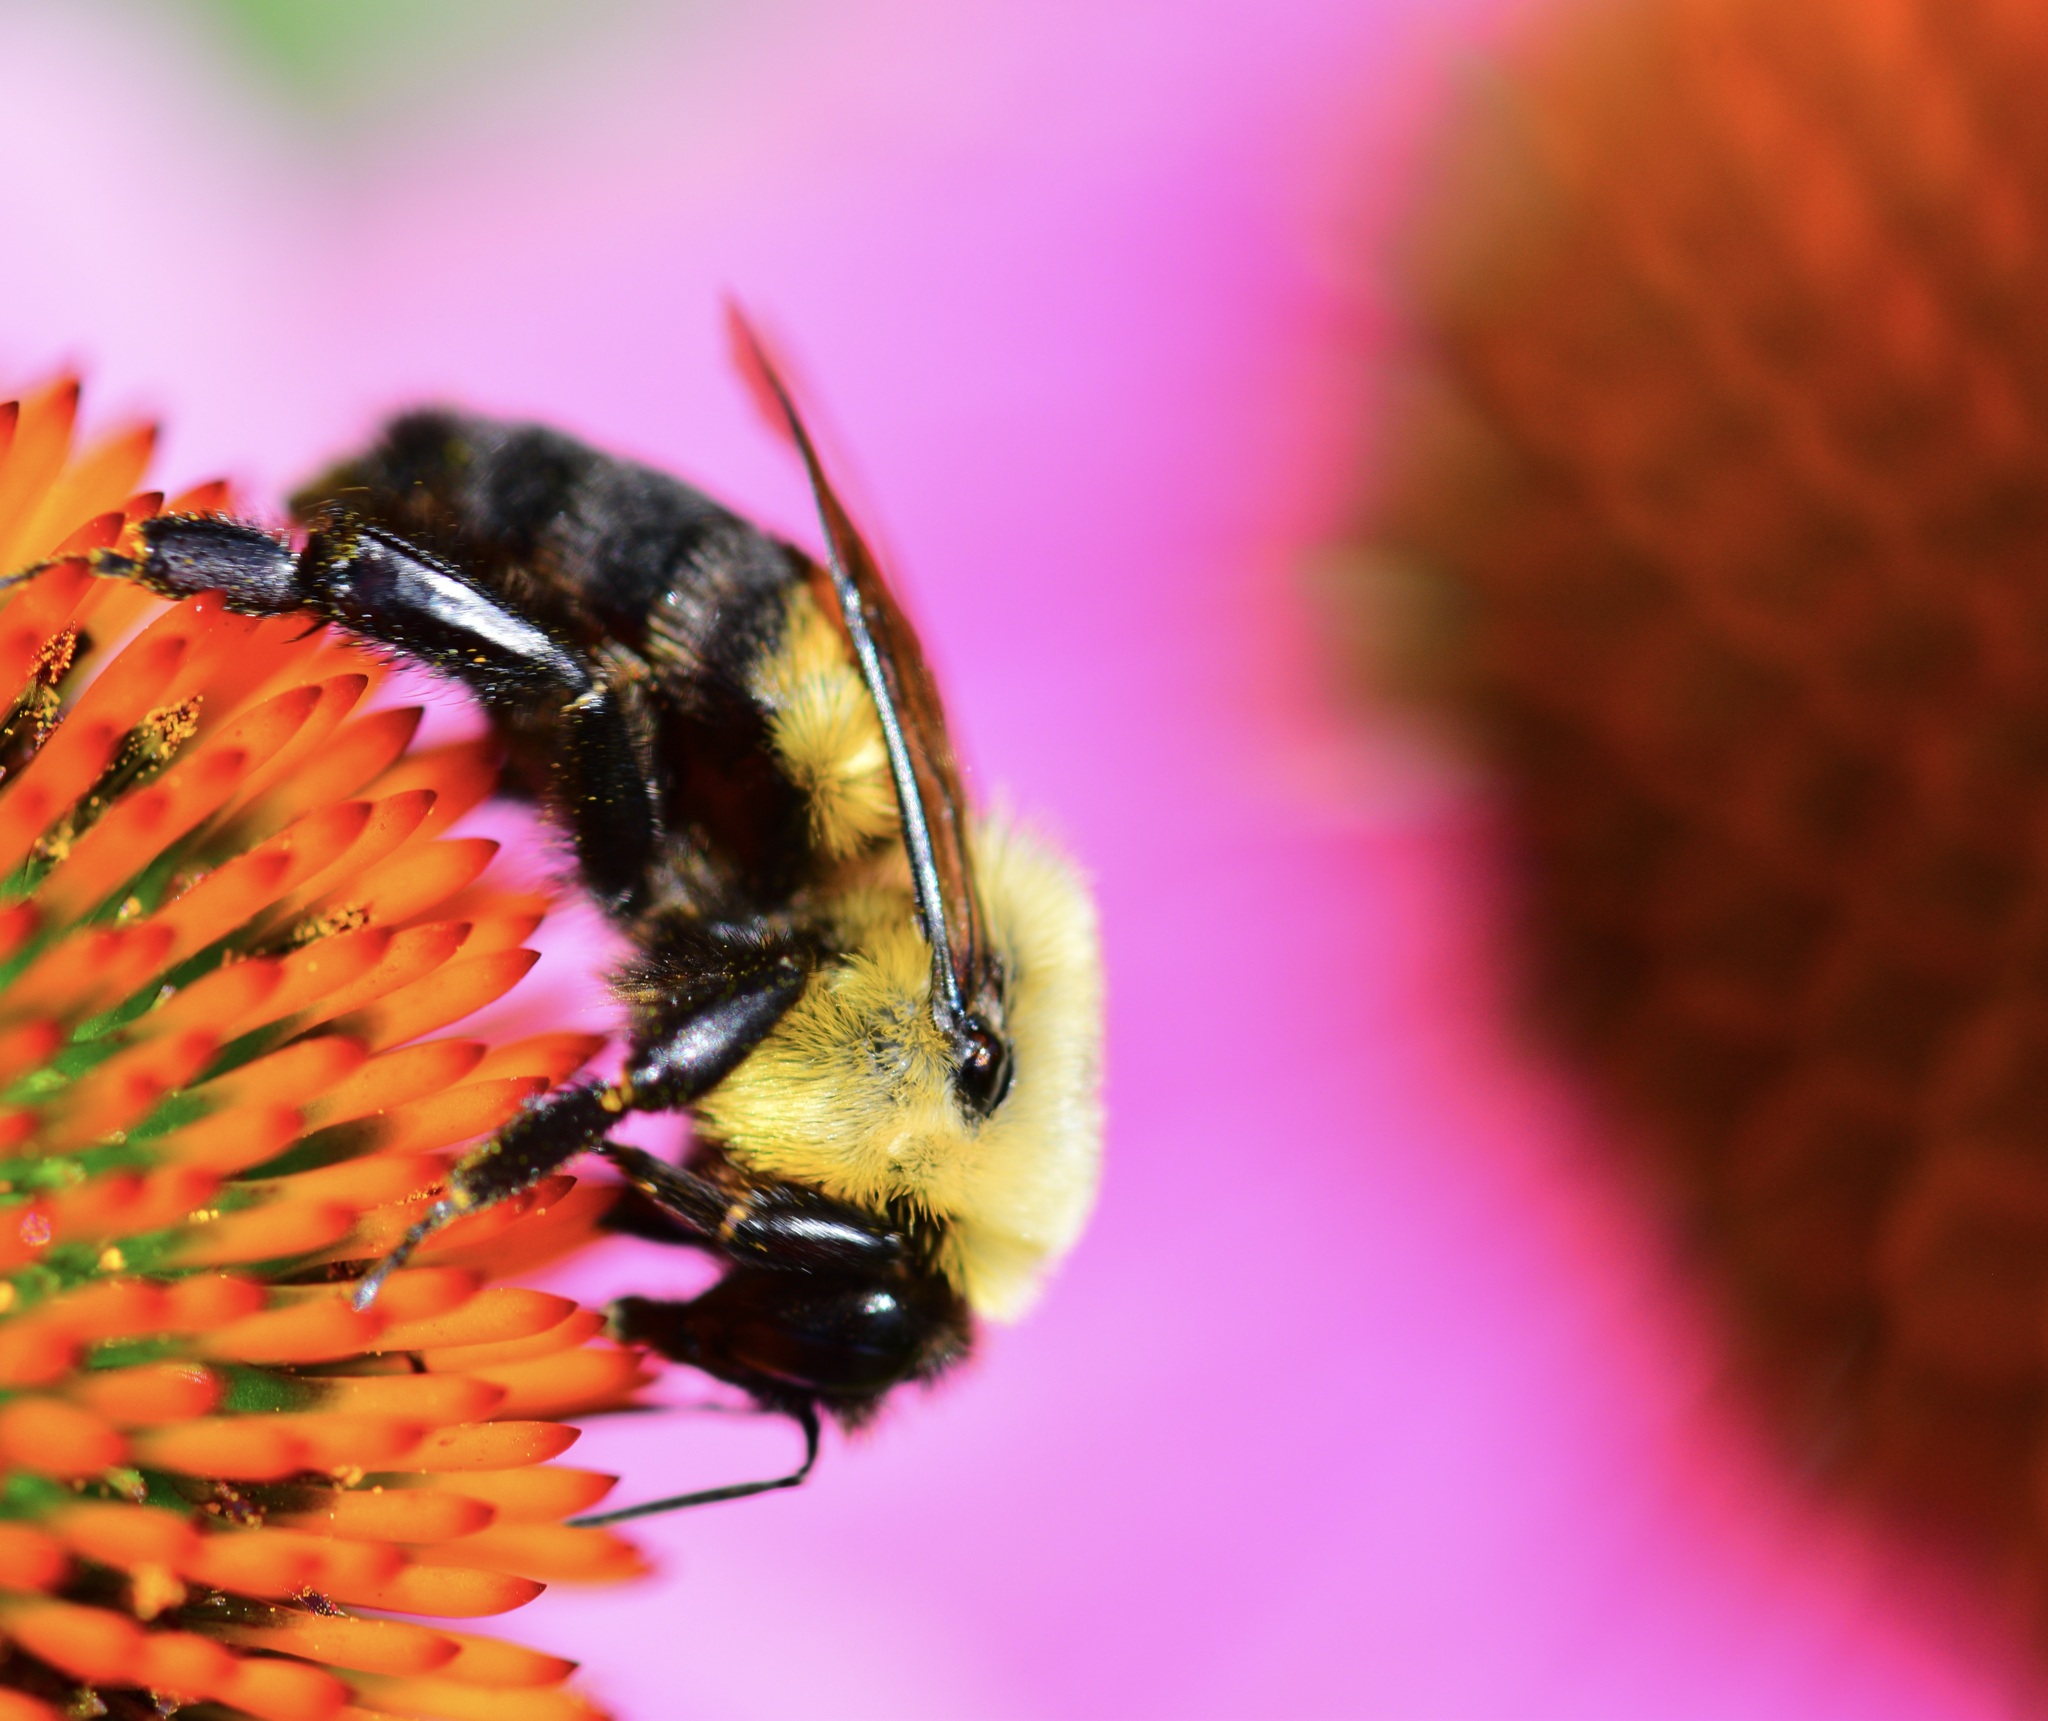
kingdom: Animalia
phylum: Arthropoda
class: Insecta
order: Hymenoptera
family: Apidae
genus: Bombus
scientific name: Bombus griseocollis
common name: Brown-belted bumble bee
